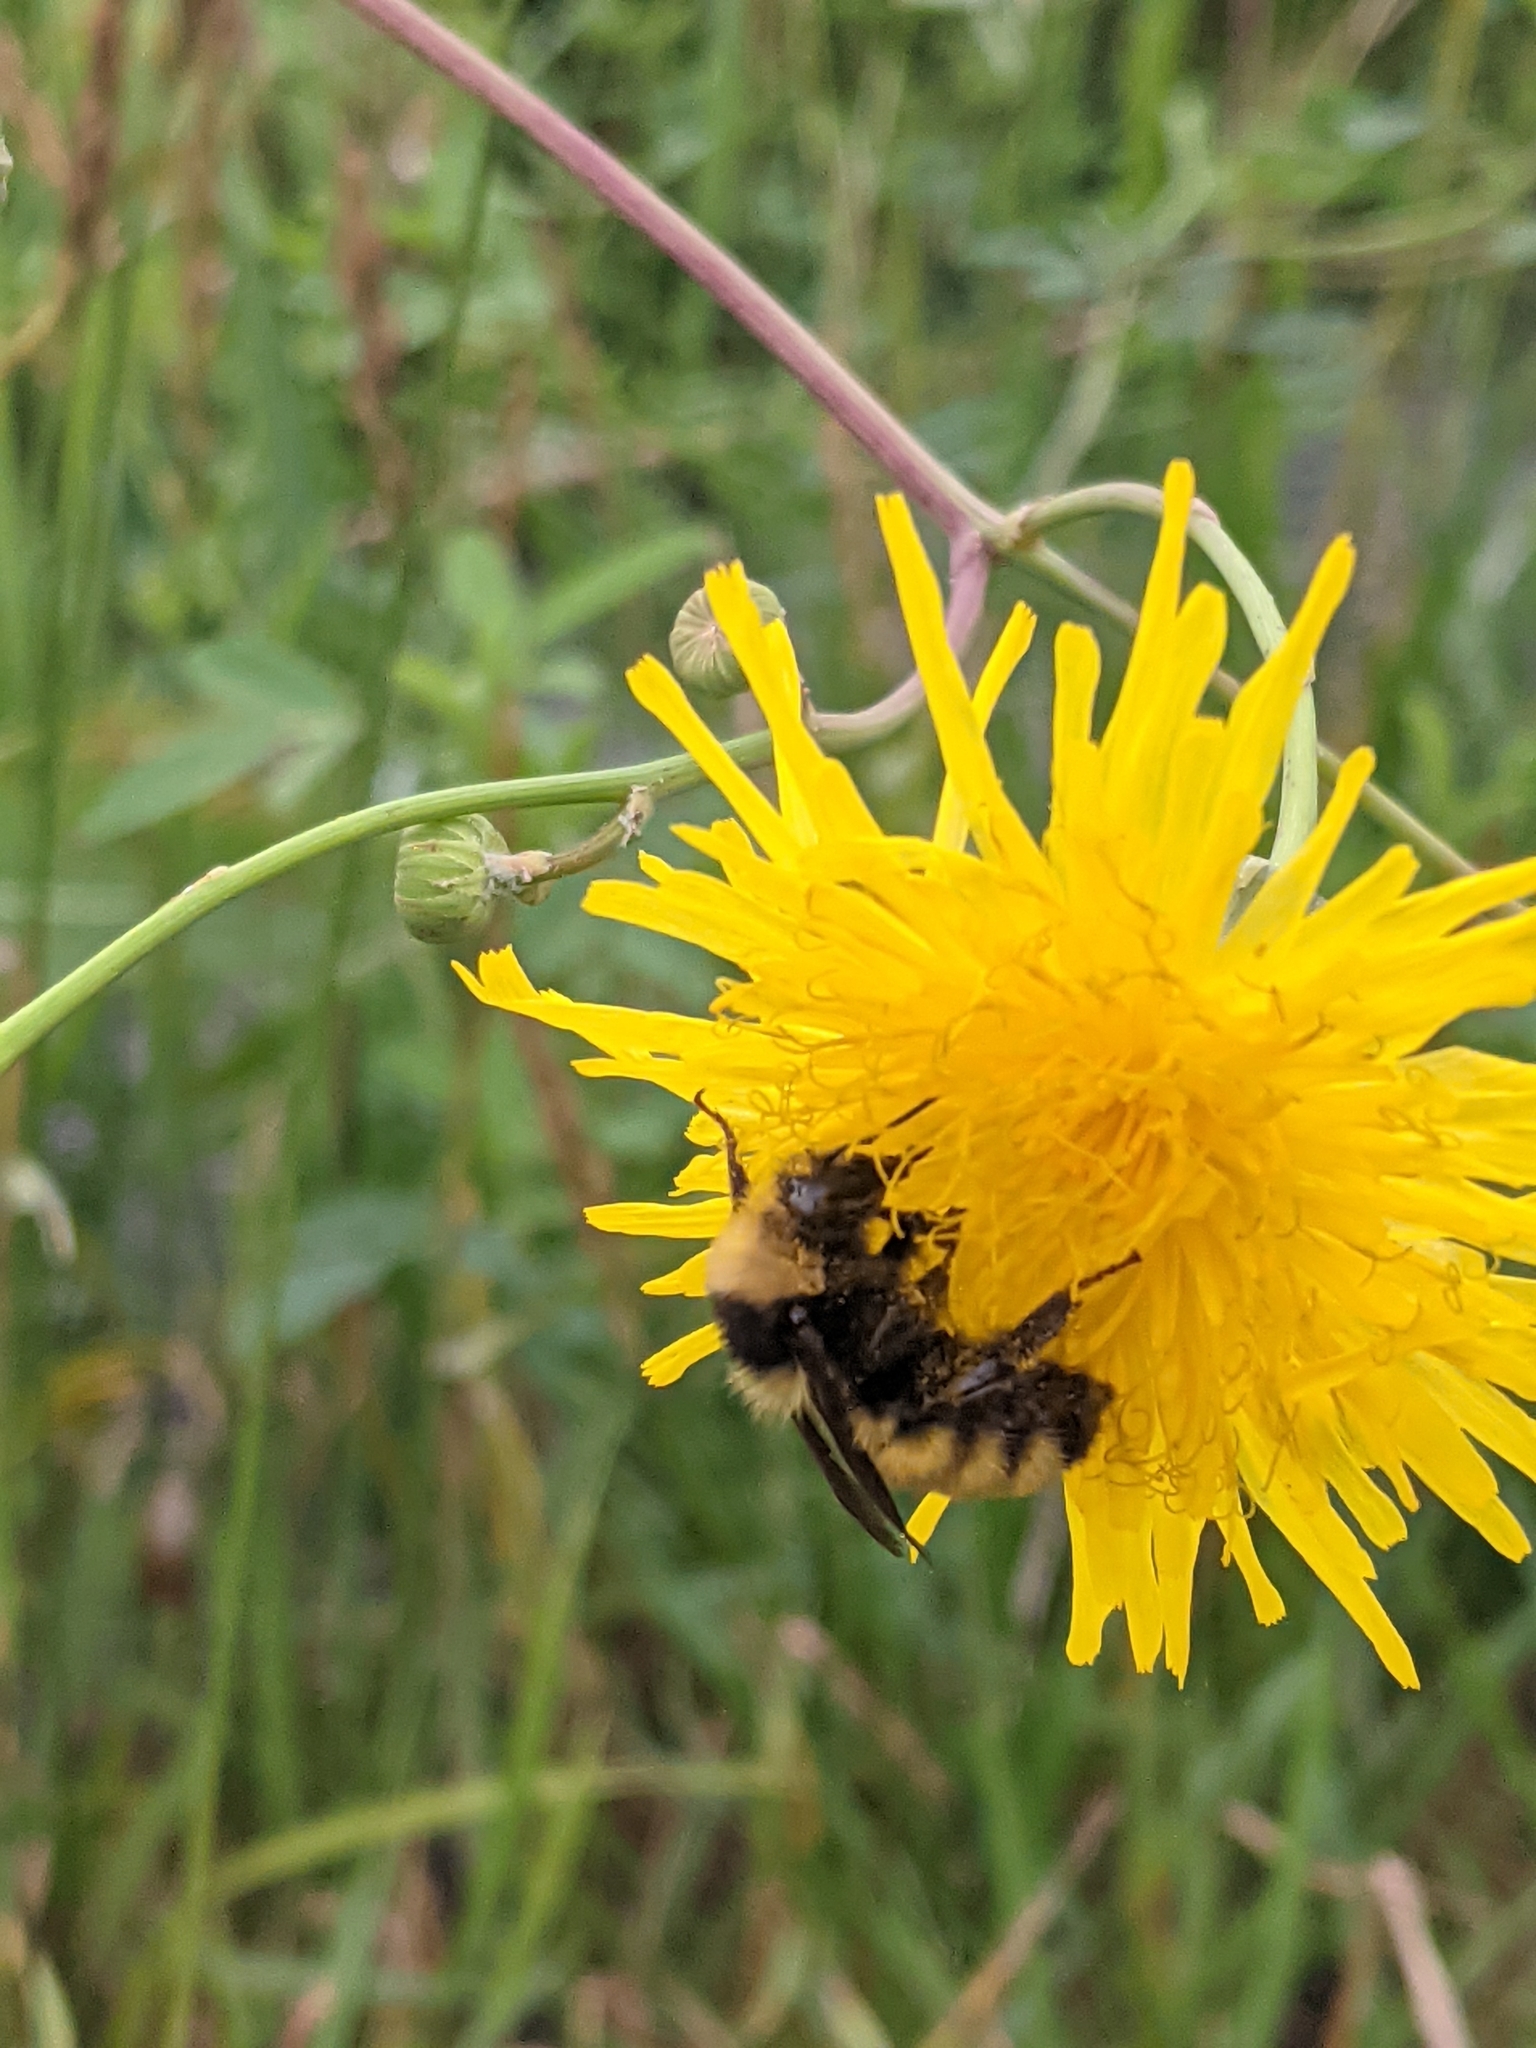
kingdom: Animalia
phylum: Arthropoda
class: Insecta
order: Hymenoptera
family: Apidae
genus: Bombus
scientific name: Bombus borealis
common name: Northern amber bumble bee
